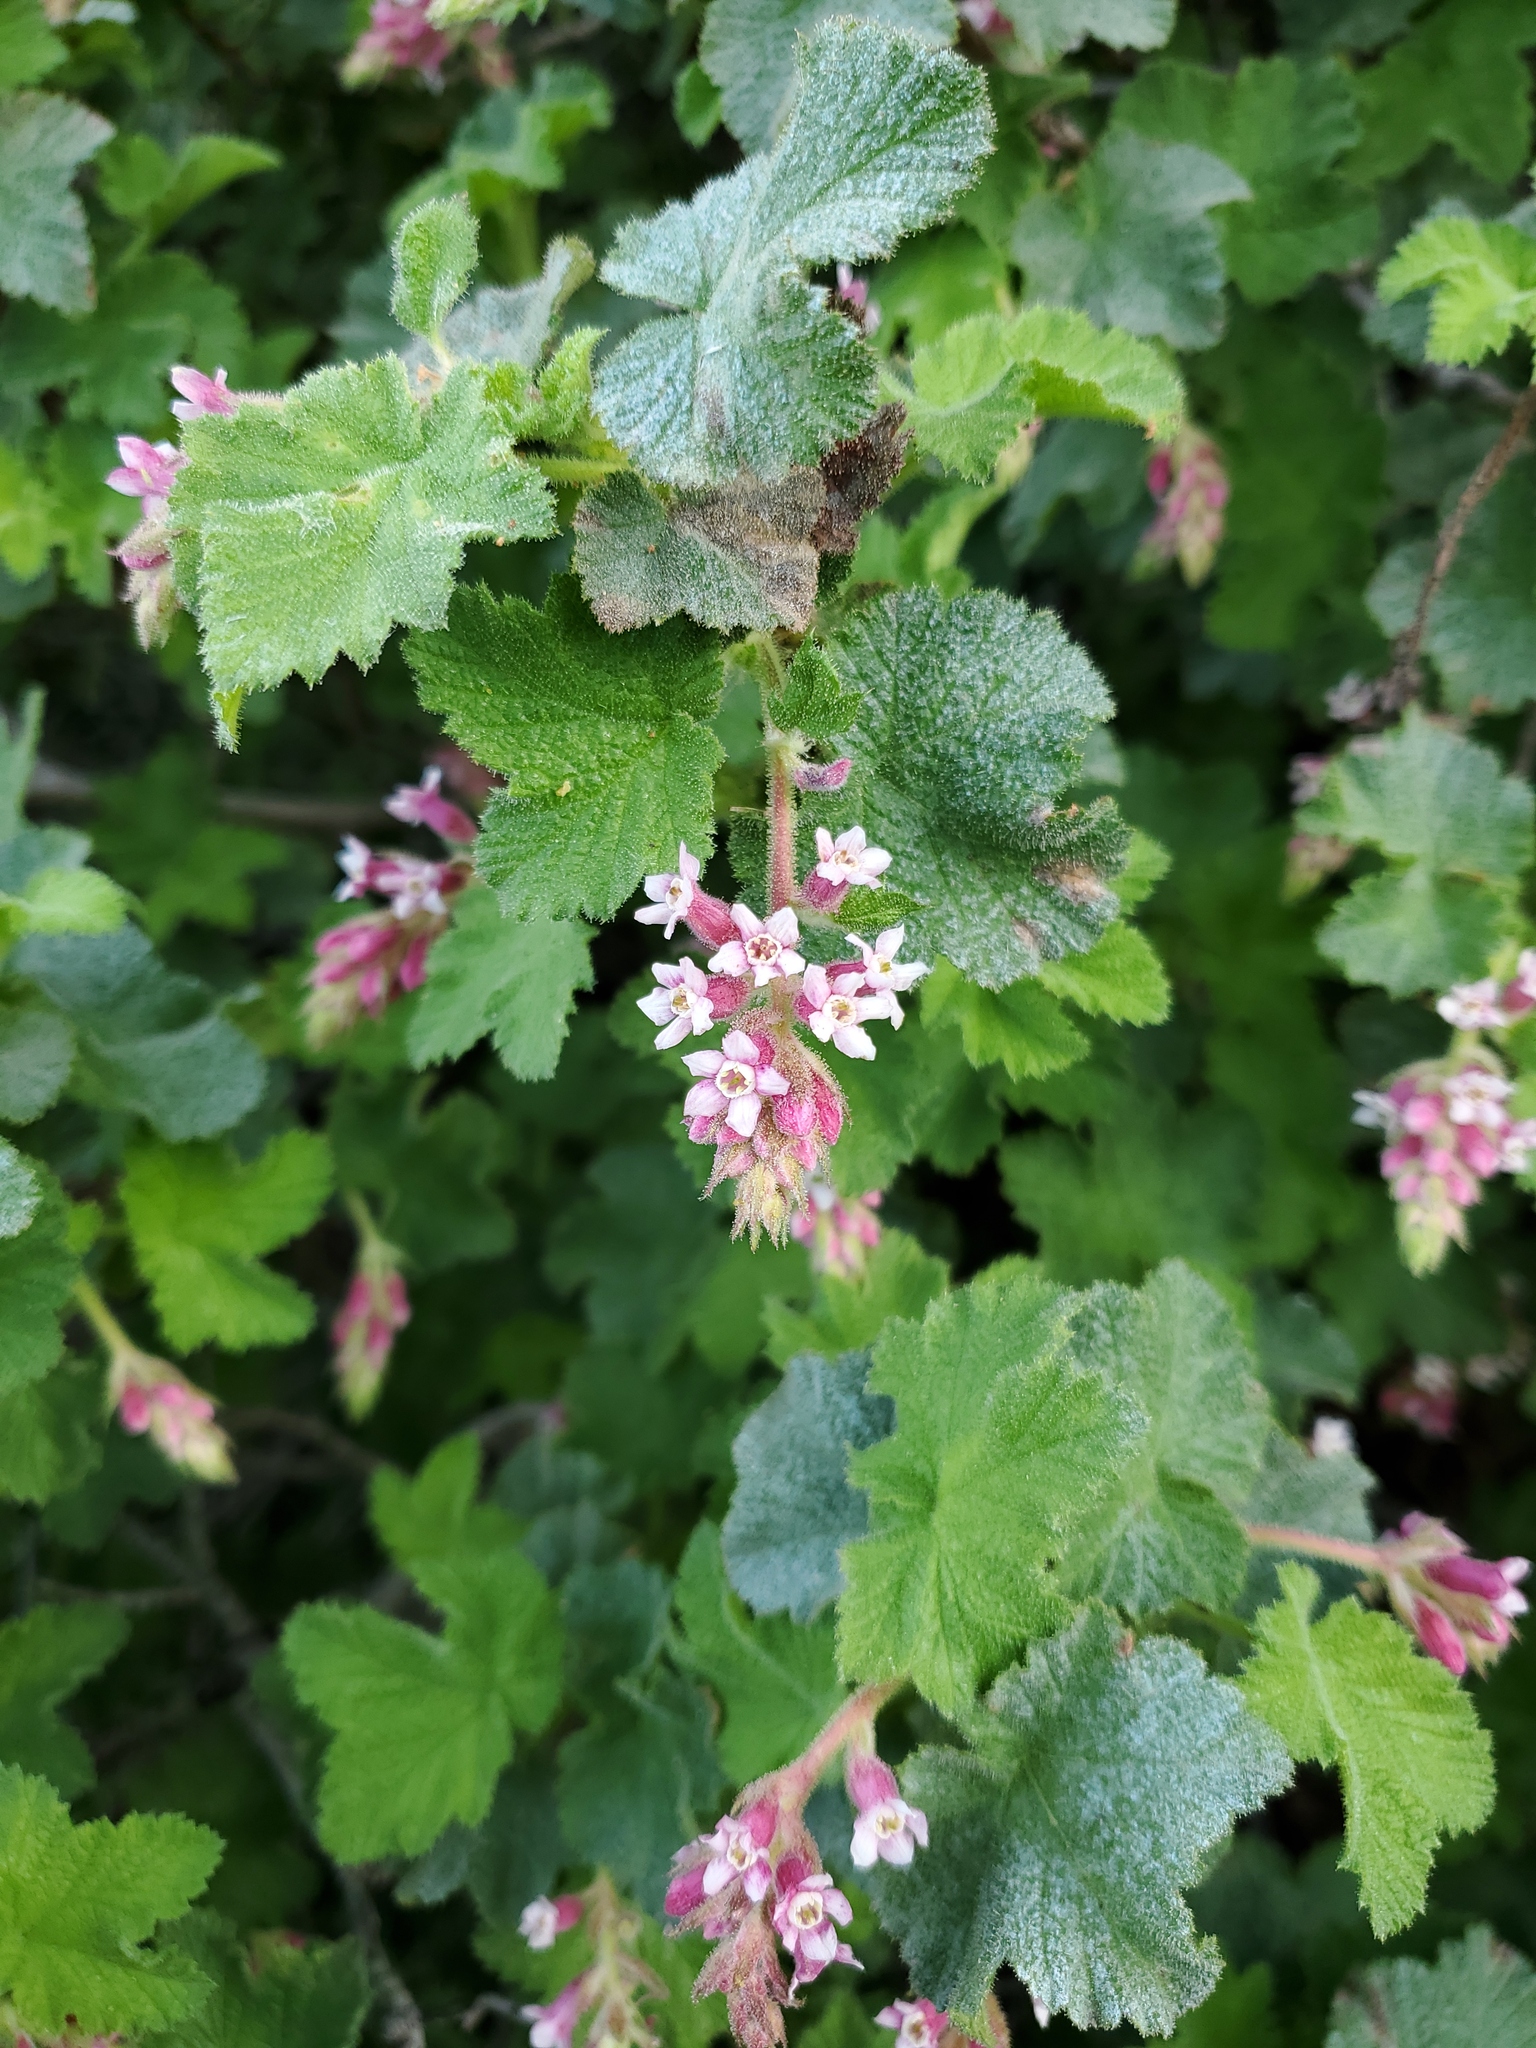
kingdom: Plantae
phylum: Tracheophyta
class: Magnoliopsida
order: Saxifragales
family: Grossulariaceae
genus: Ribes
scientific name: Ribes malvaceum
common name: Chaparral currant
